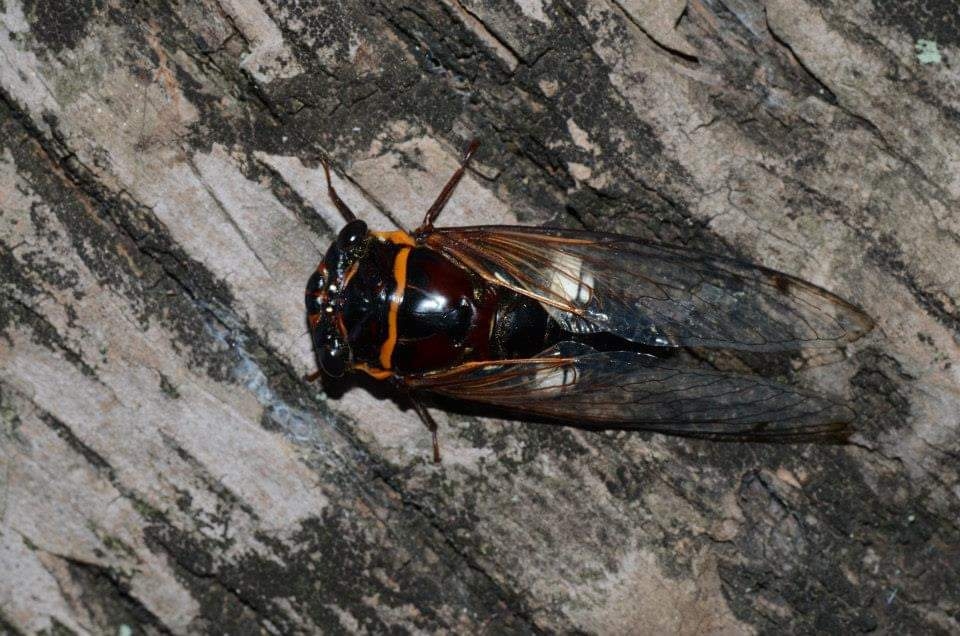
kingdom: Animalia
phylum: Arthropoda
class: Insecta
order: Hemiptera
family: Cicadidae
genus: Cryptotympana
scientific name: Cryptotympana timorica
